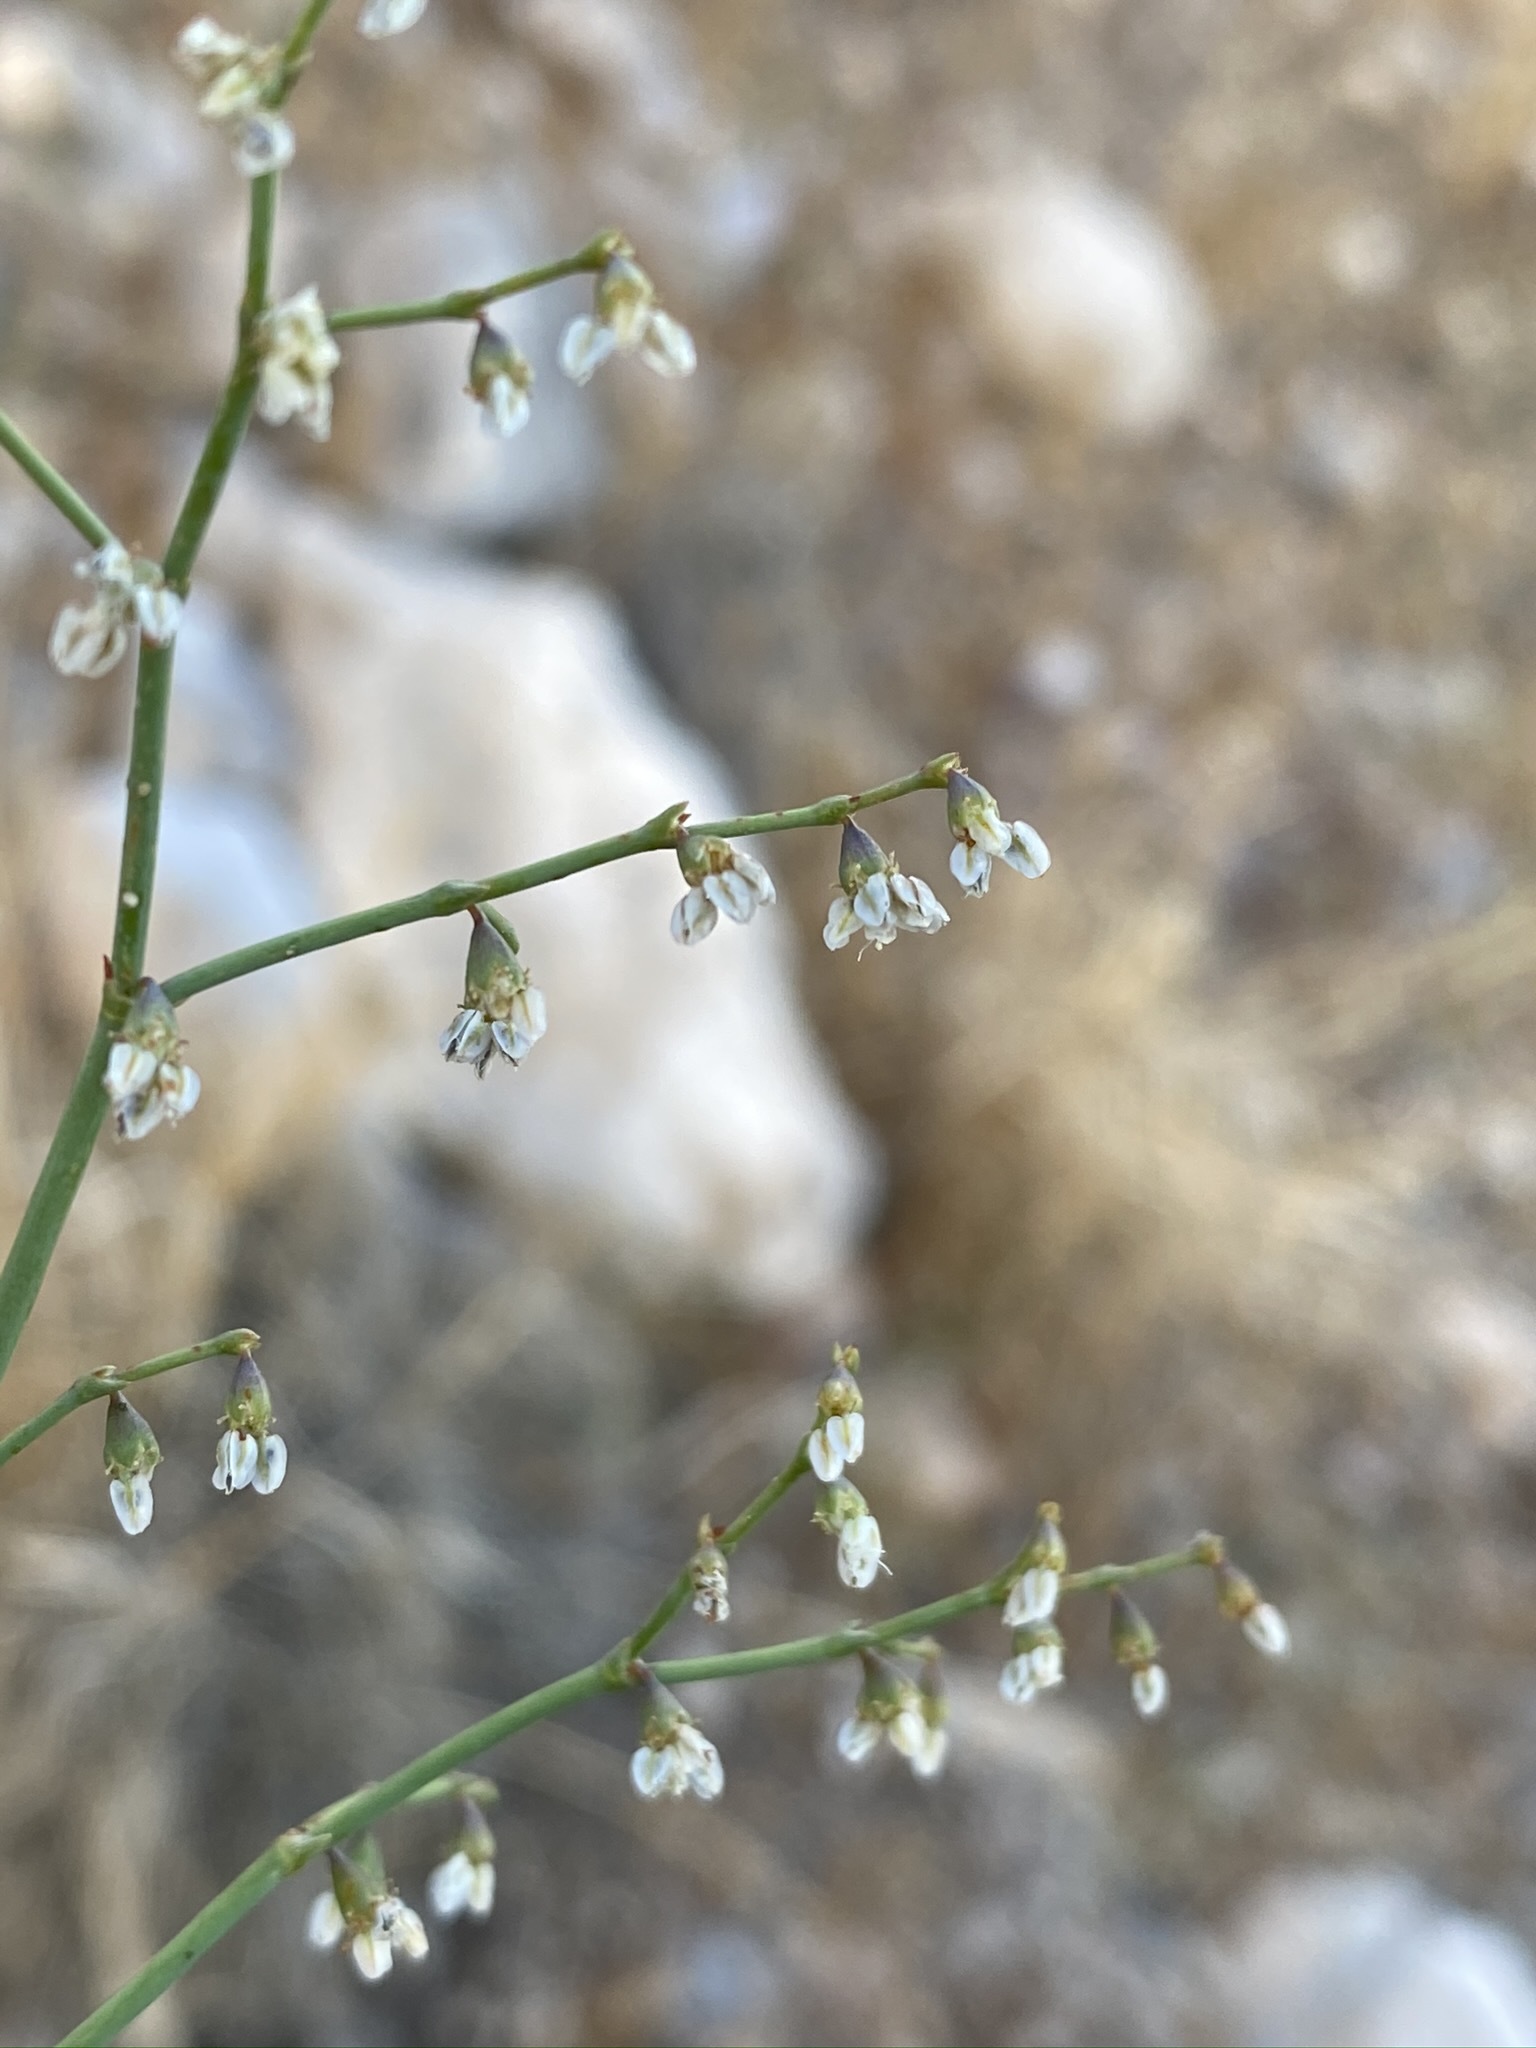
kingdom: Plantae
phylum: Tracheophyta
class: Magnoliopsida
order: Caryophyllales
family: Polygonaceae
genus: Eriogonum
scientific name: Eriogonum deflexum
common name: Skeleton-weed
